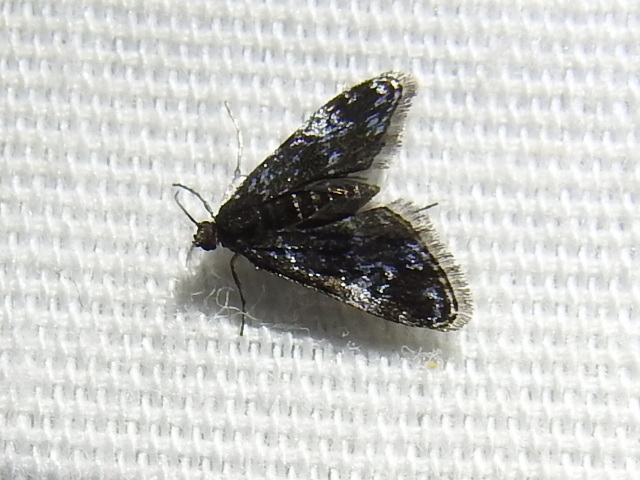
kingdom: Animalia
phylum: Arthropoda
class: Insecta
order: Lepidoptera
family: Crambidae
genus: Elophila
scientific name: Elophila tinealis
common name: Black duckweed moth
